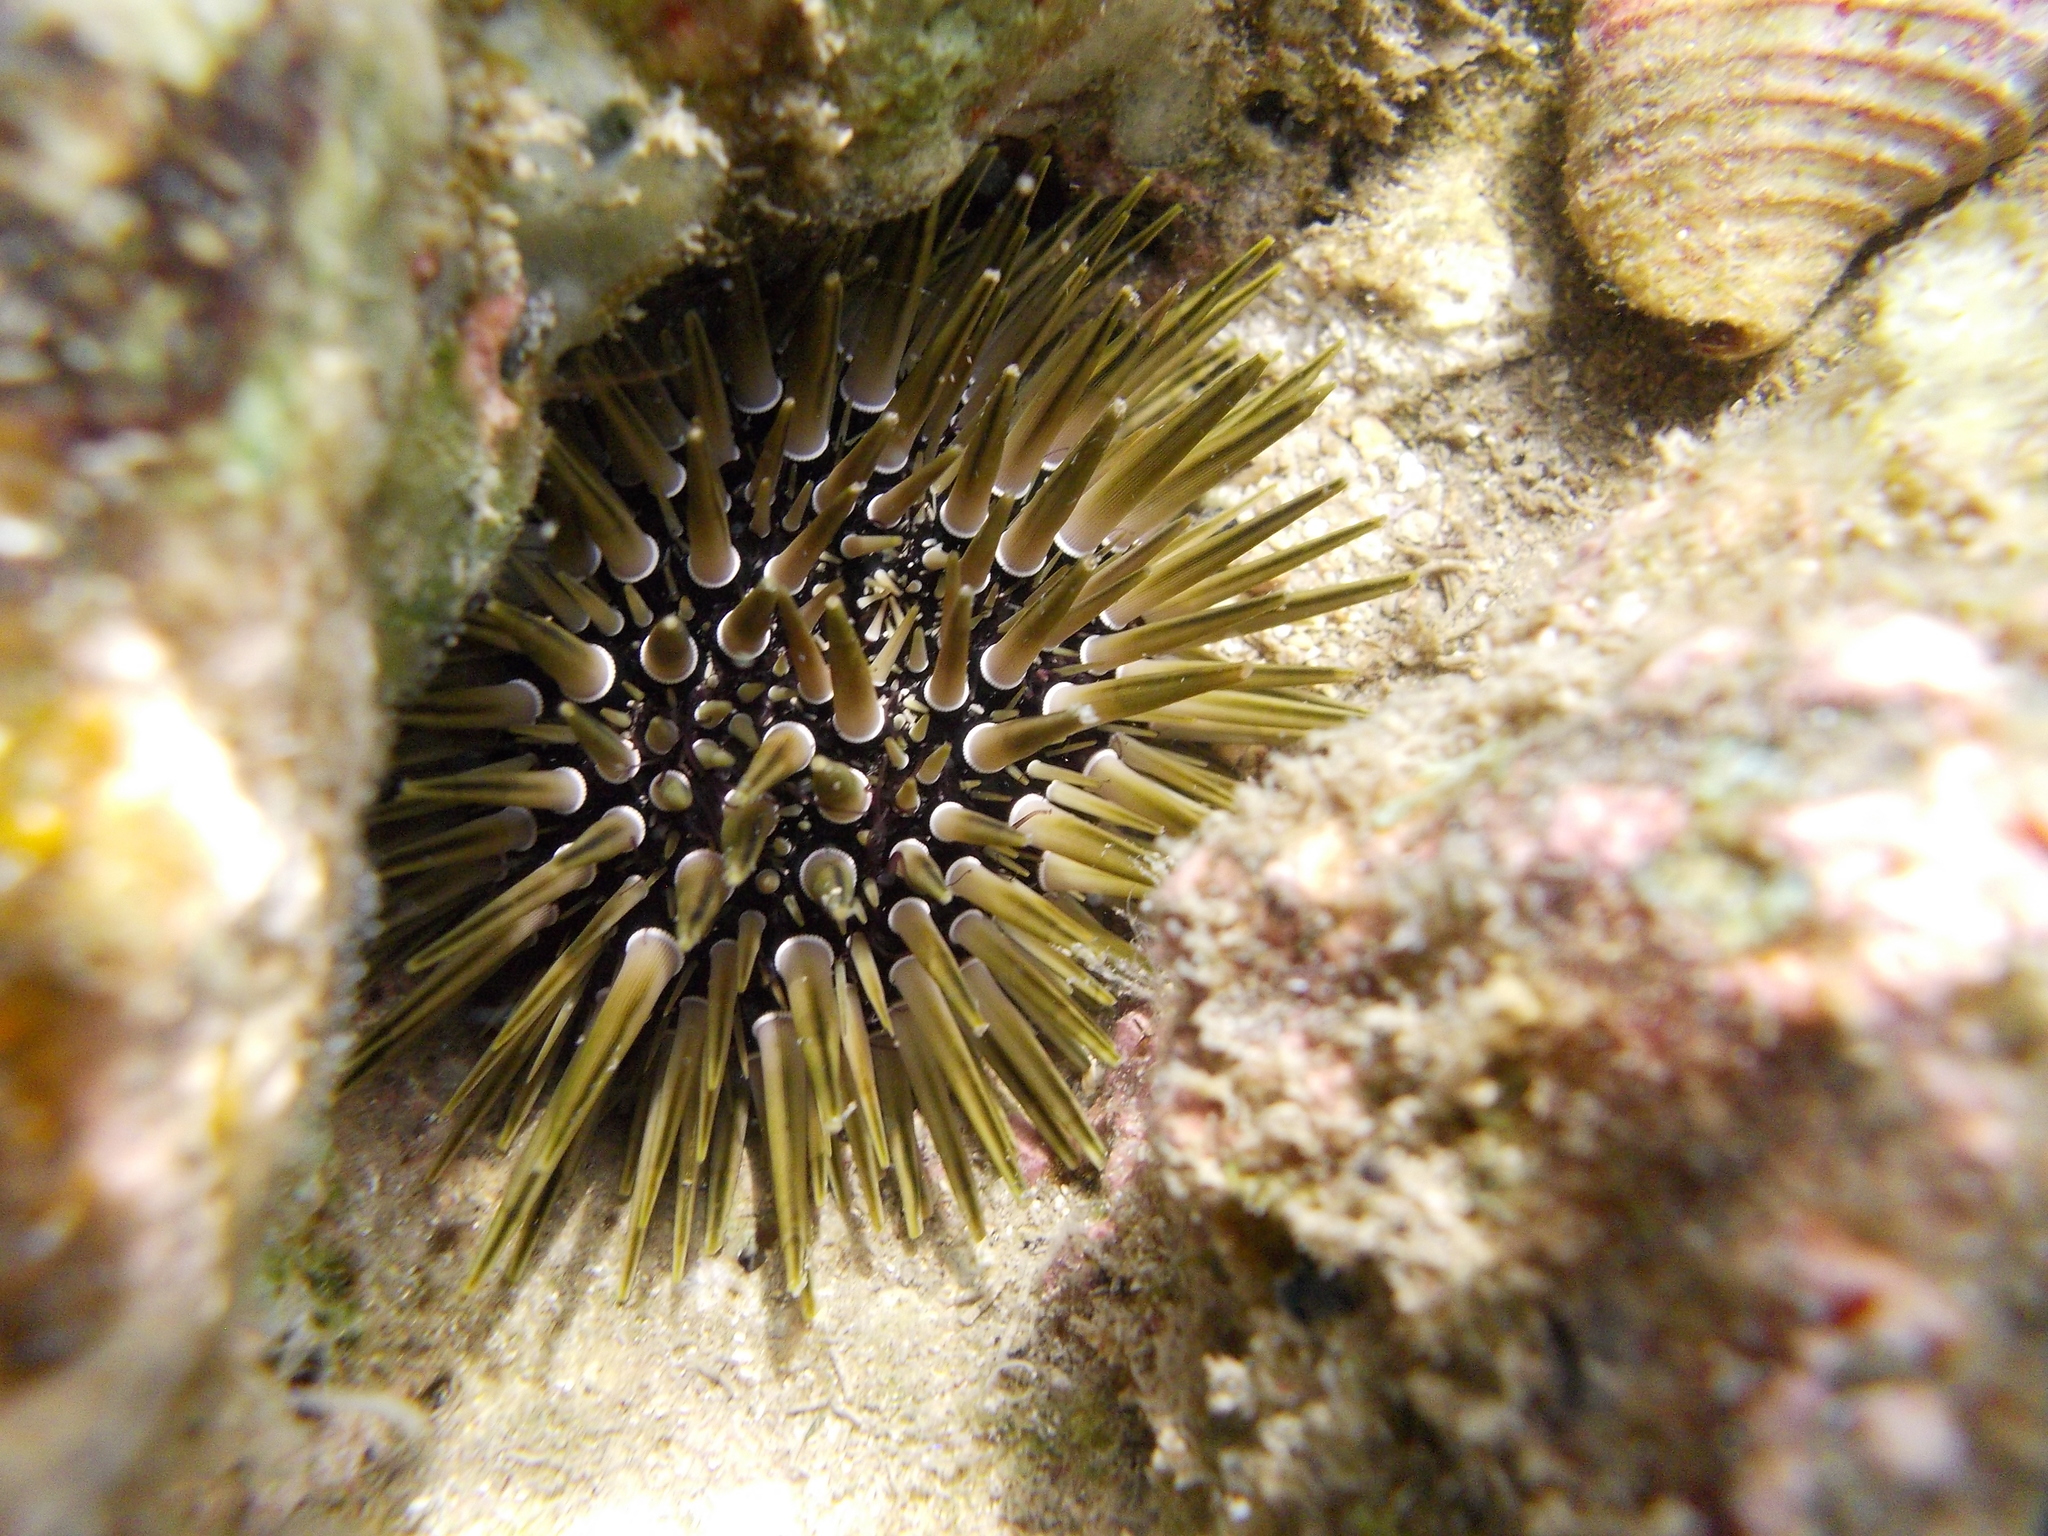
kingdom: Animalia
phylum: Echinodermata
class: Echinoidea
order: Camarodonta
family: Echinometridae
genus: Echinometra
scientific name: Echinometra mathaei
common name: Rock-boring urchin
